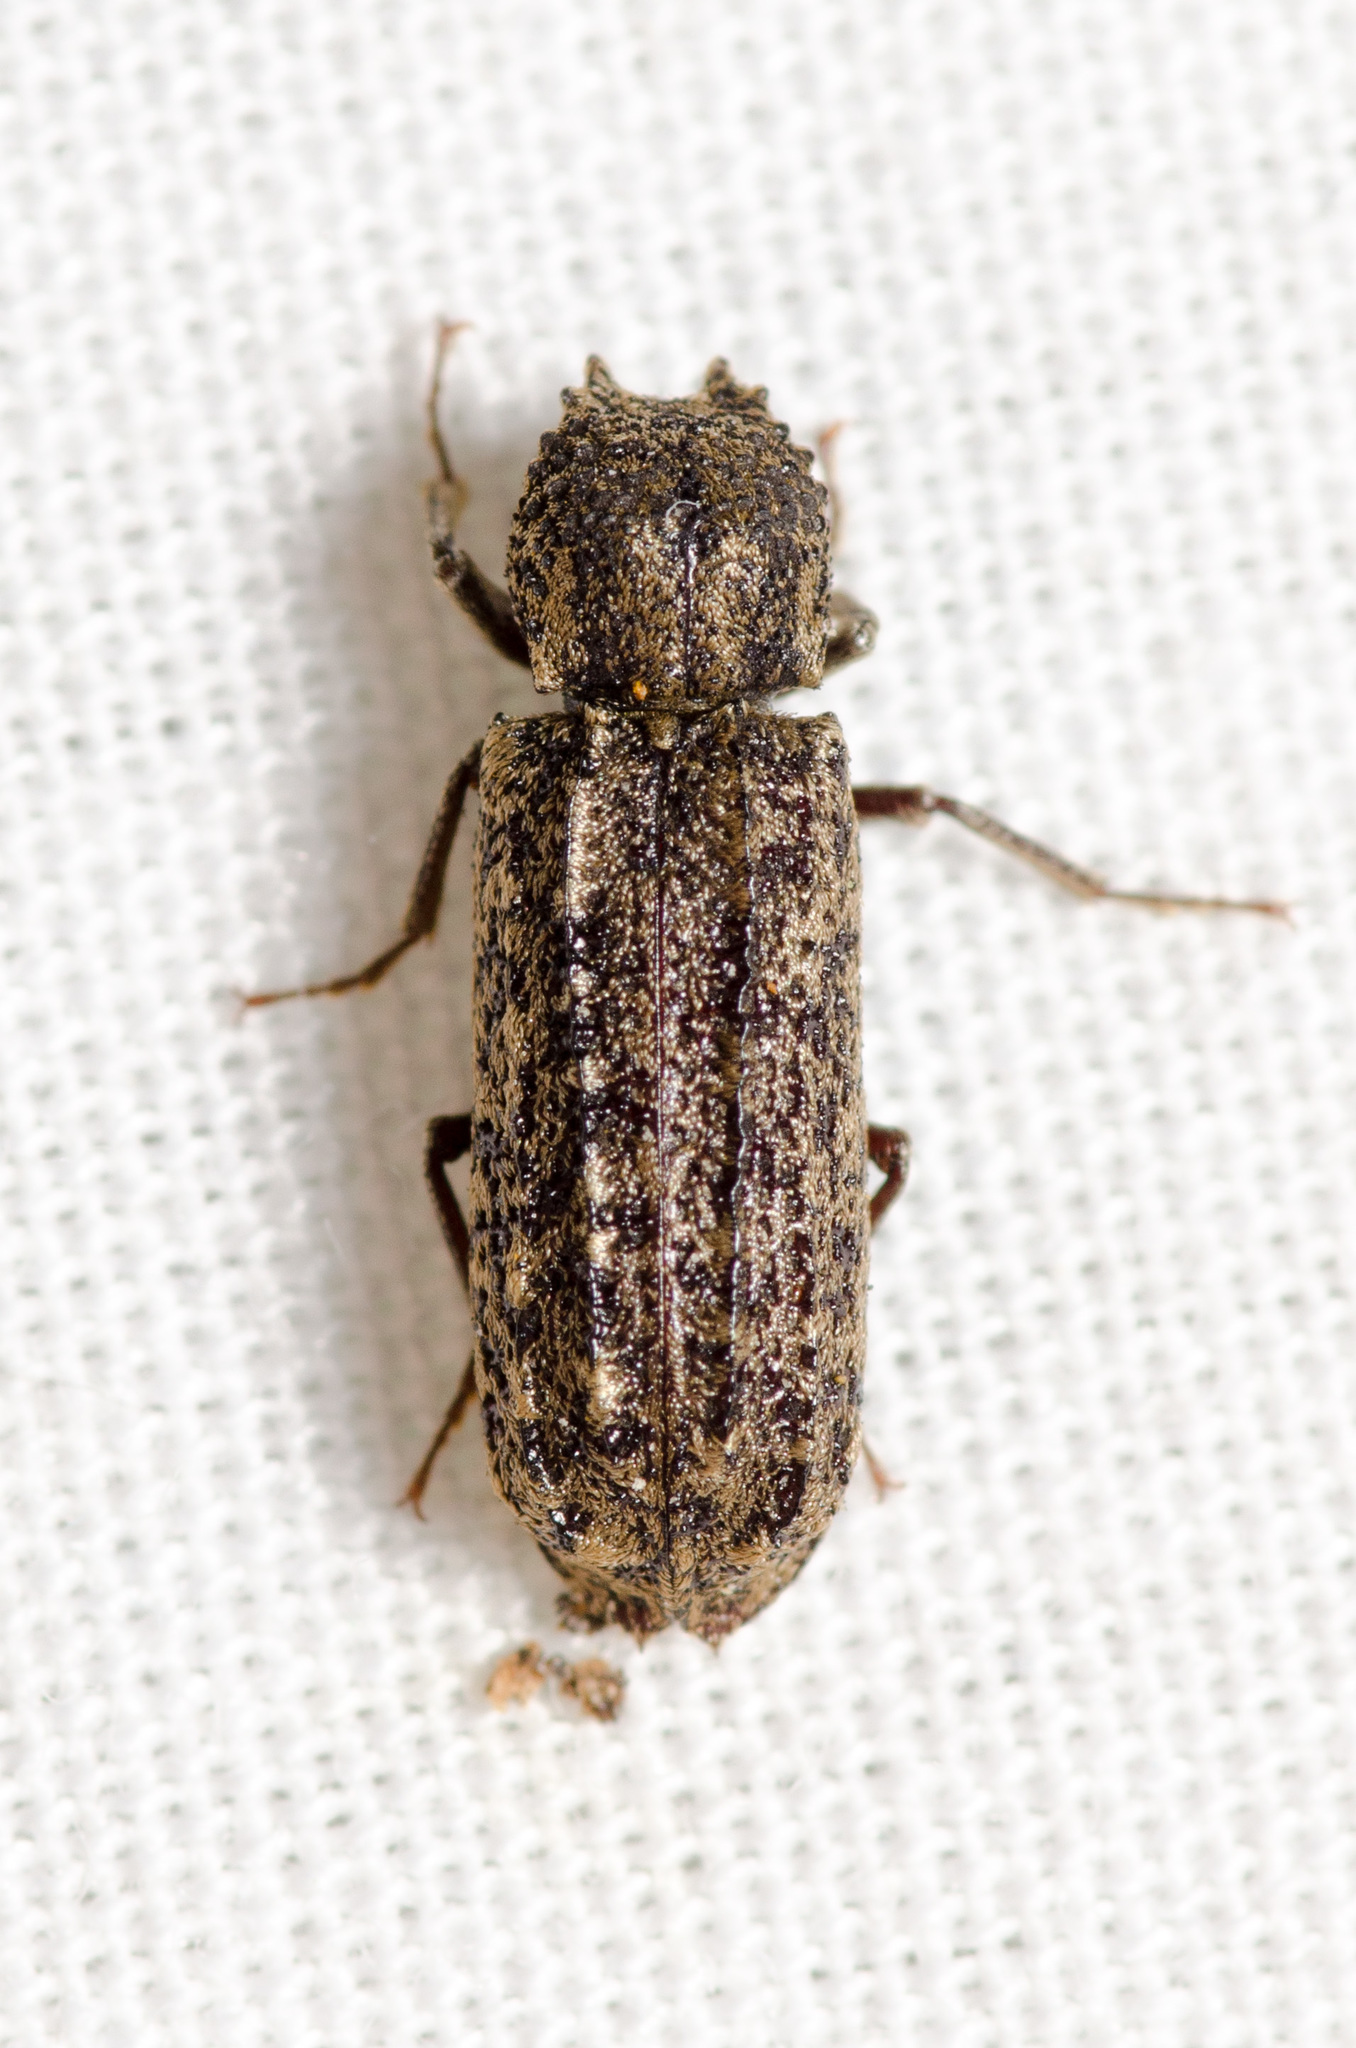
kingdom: Animalia
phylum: Arthropoda
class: Insecta
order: Coleoptera
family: Bostrichidae
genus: Lichenophanes
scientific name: Lichenophanes bicornis
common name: Two-horned powder-post beetle
